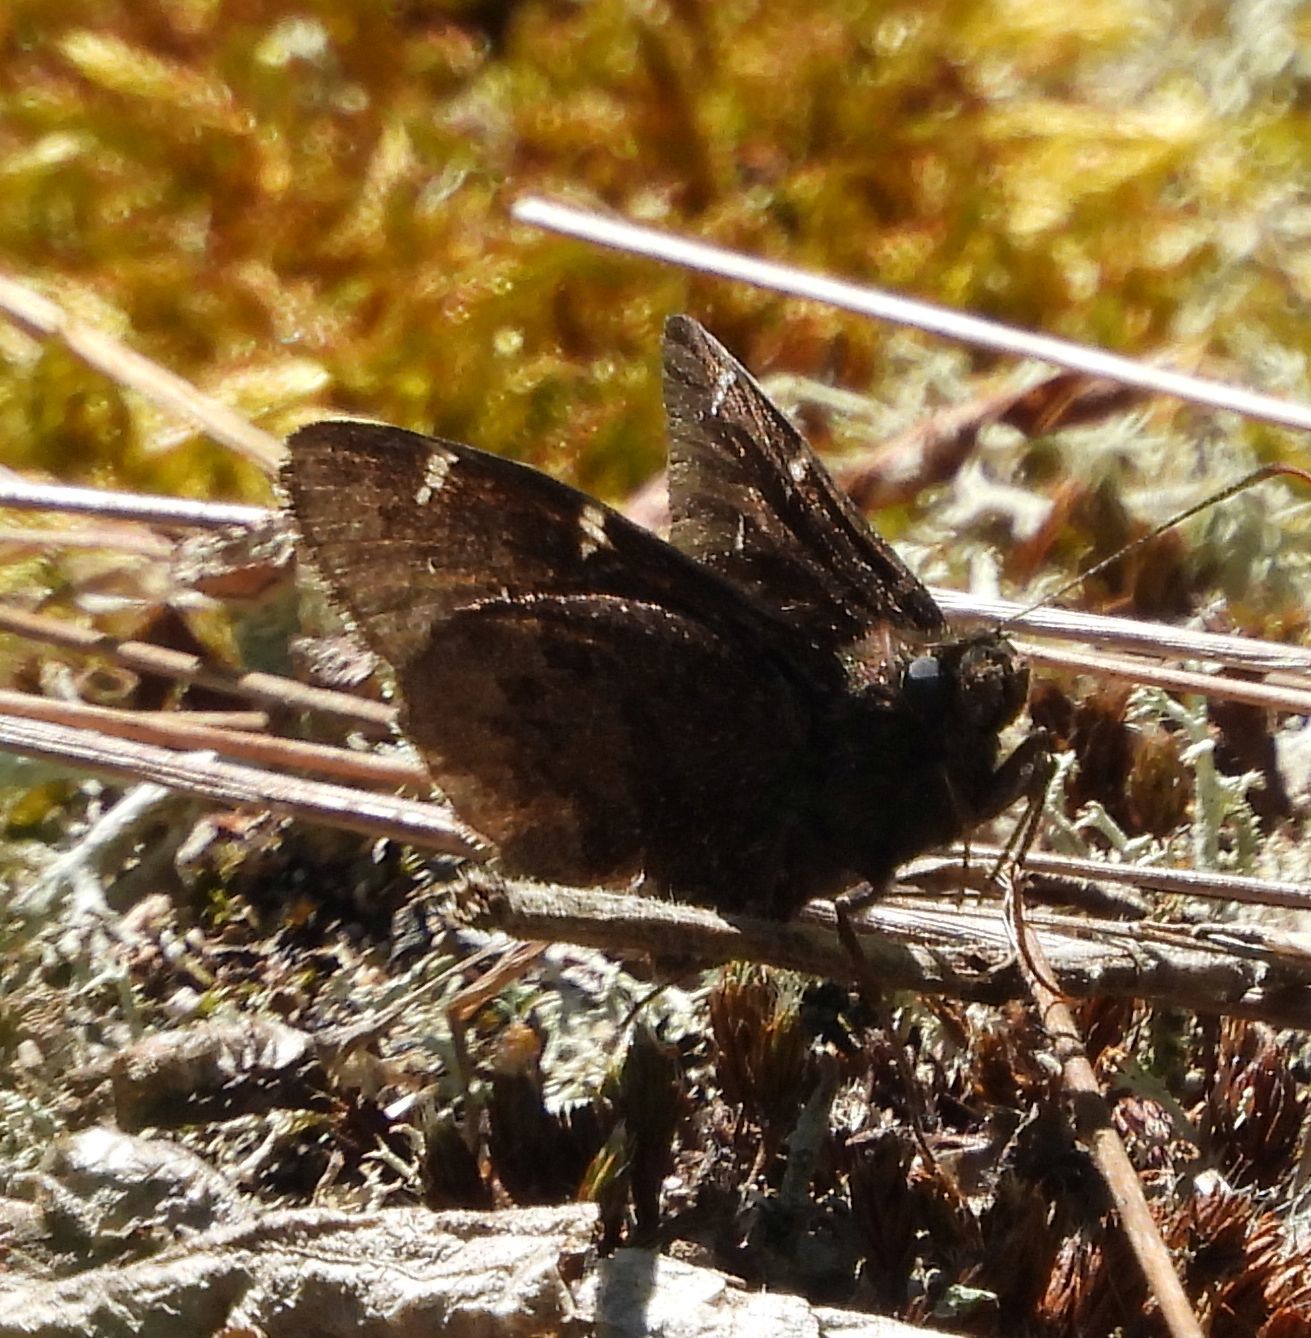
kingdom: Animalia
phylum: Arthropoda
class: Insecta
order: Lepidoptera
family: Hesperiidae
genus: Thorybes
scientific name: Thorybes pylades
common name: Northern cloudywing
